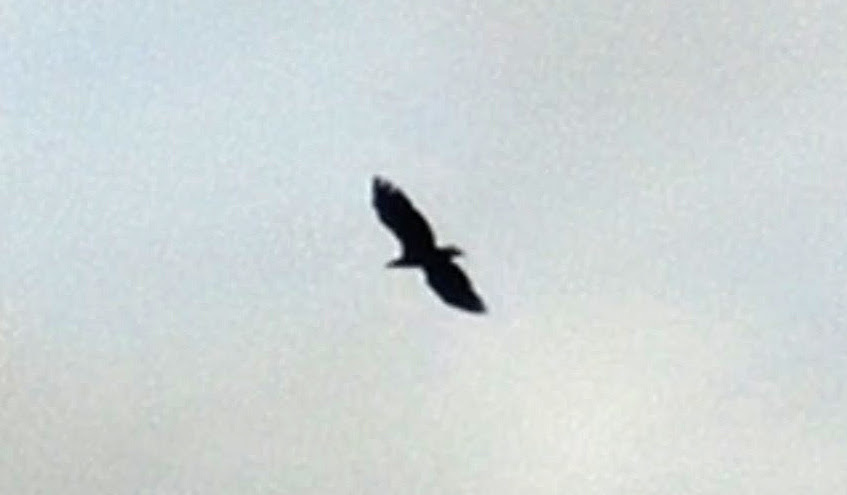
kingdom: Animalia
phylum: Chordata
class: Aves
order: Accipitriformes
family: Accipitridae
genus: Haliaeetus
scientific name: Haliaeetus albicilla
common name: White-tailed eagle
